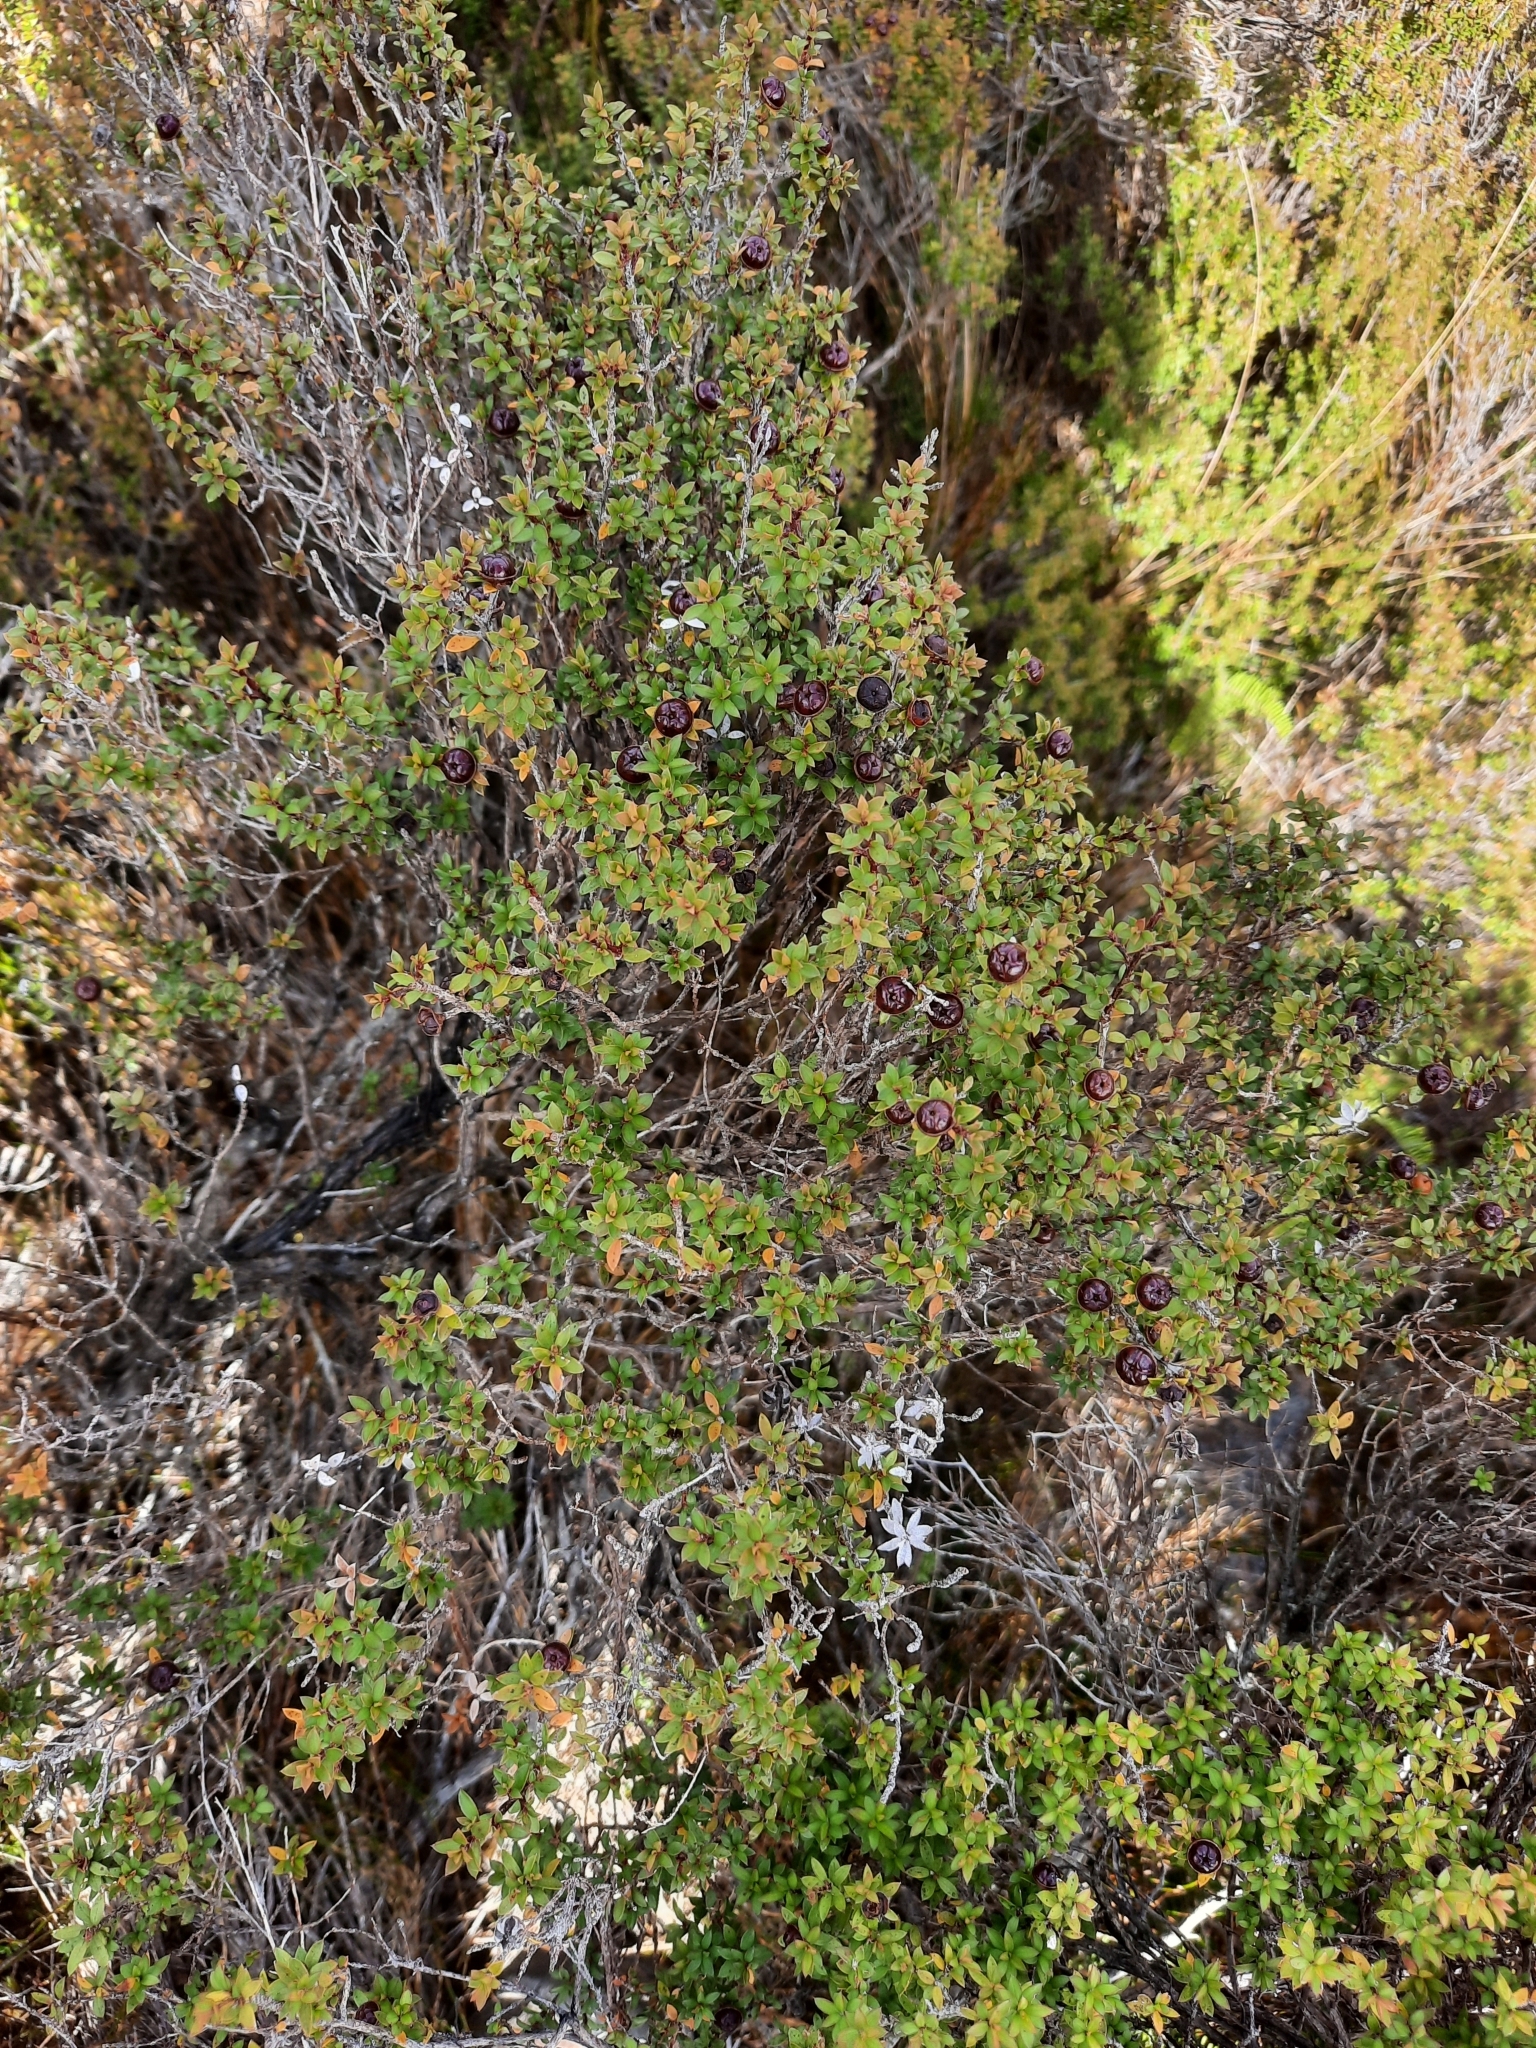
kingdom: Plantae
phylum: Tracheophyta
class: Magnoliopsida
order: Myrtales
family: Myrtaceae
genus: Leptospermum
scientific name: Leptospermum scoparium
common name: Broom tea-tree
